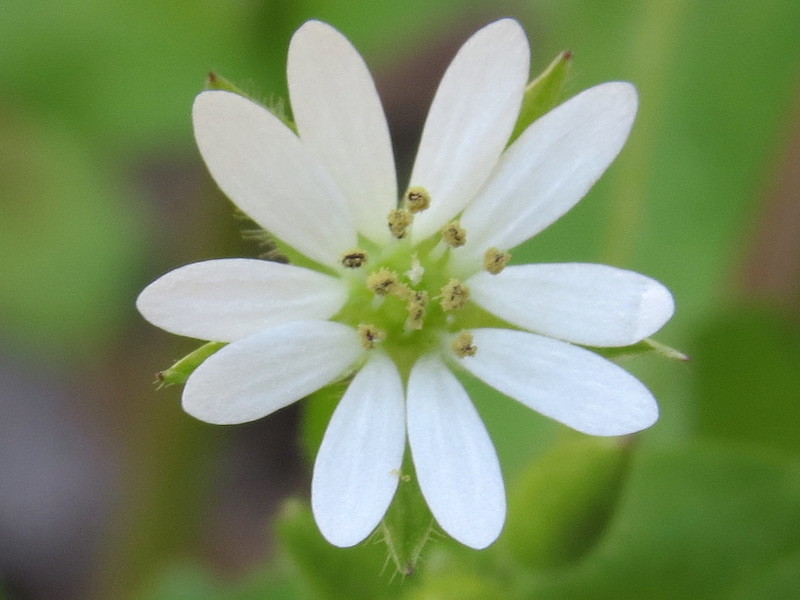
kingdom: Plantae
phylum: Tracheophyta
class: Magnoliopsida
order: Caryophyllales
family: Caryophyllaceae
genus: Stellaria
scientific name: Stellaria media
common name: Common chickweed
